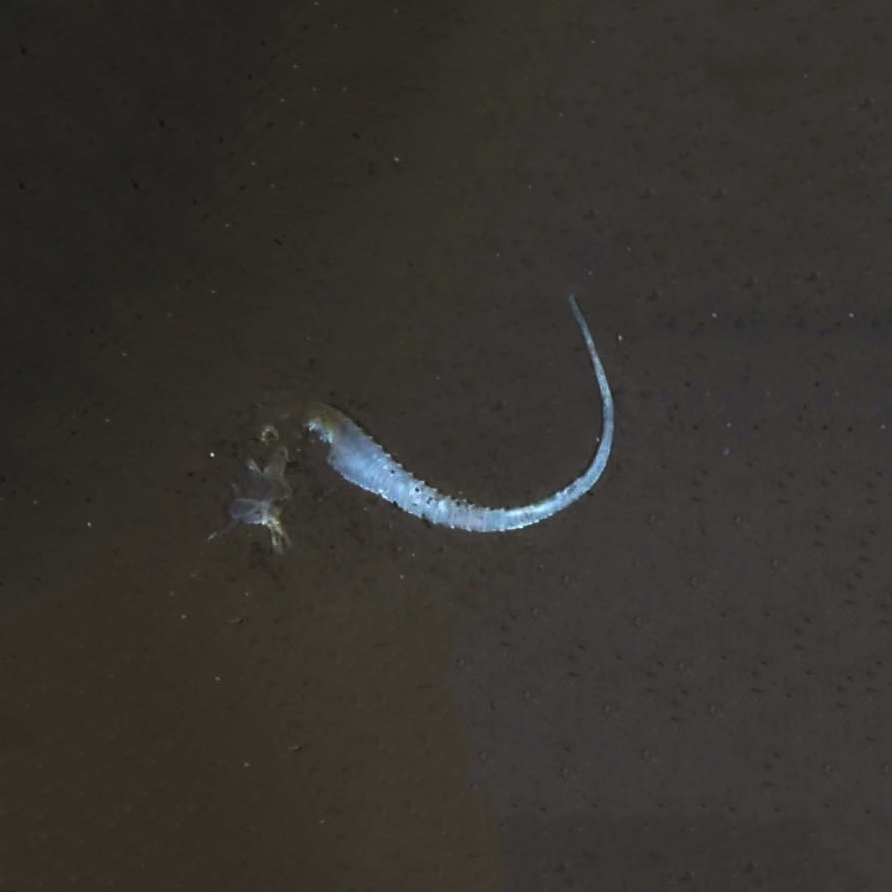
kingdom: Animalia
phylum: Chordata
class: Squamata
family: Iguanidae
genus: Ctenosaura
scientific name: Ctenosaura similis
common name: Black spiny-tailed iguana
